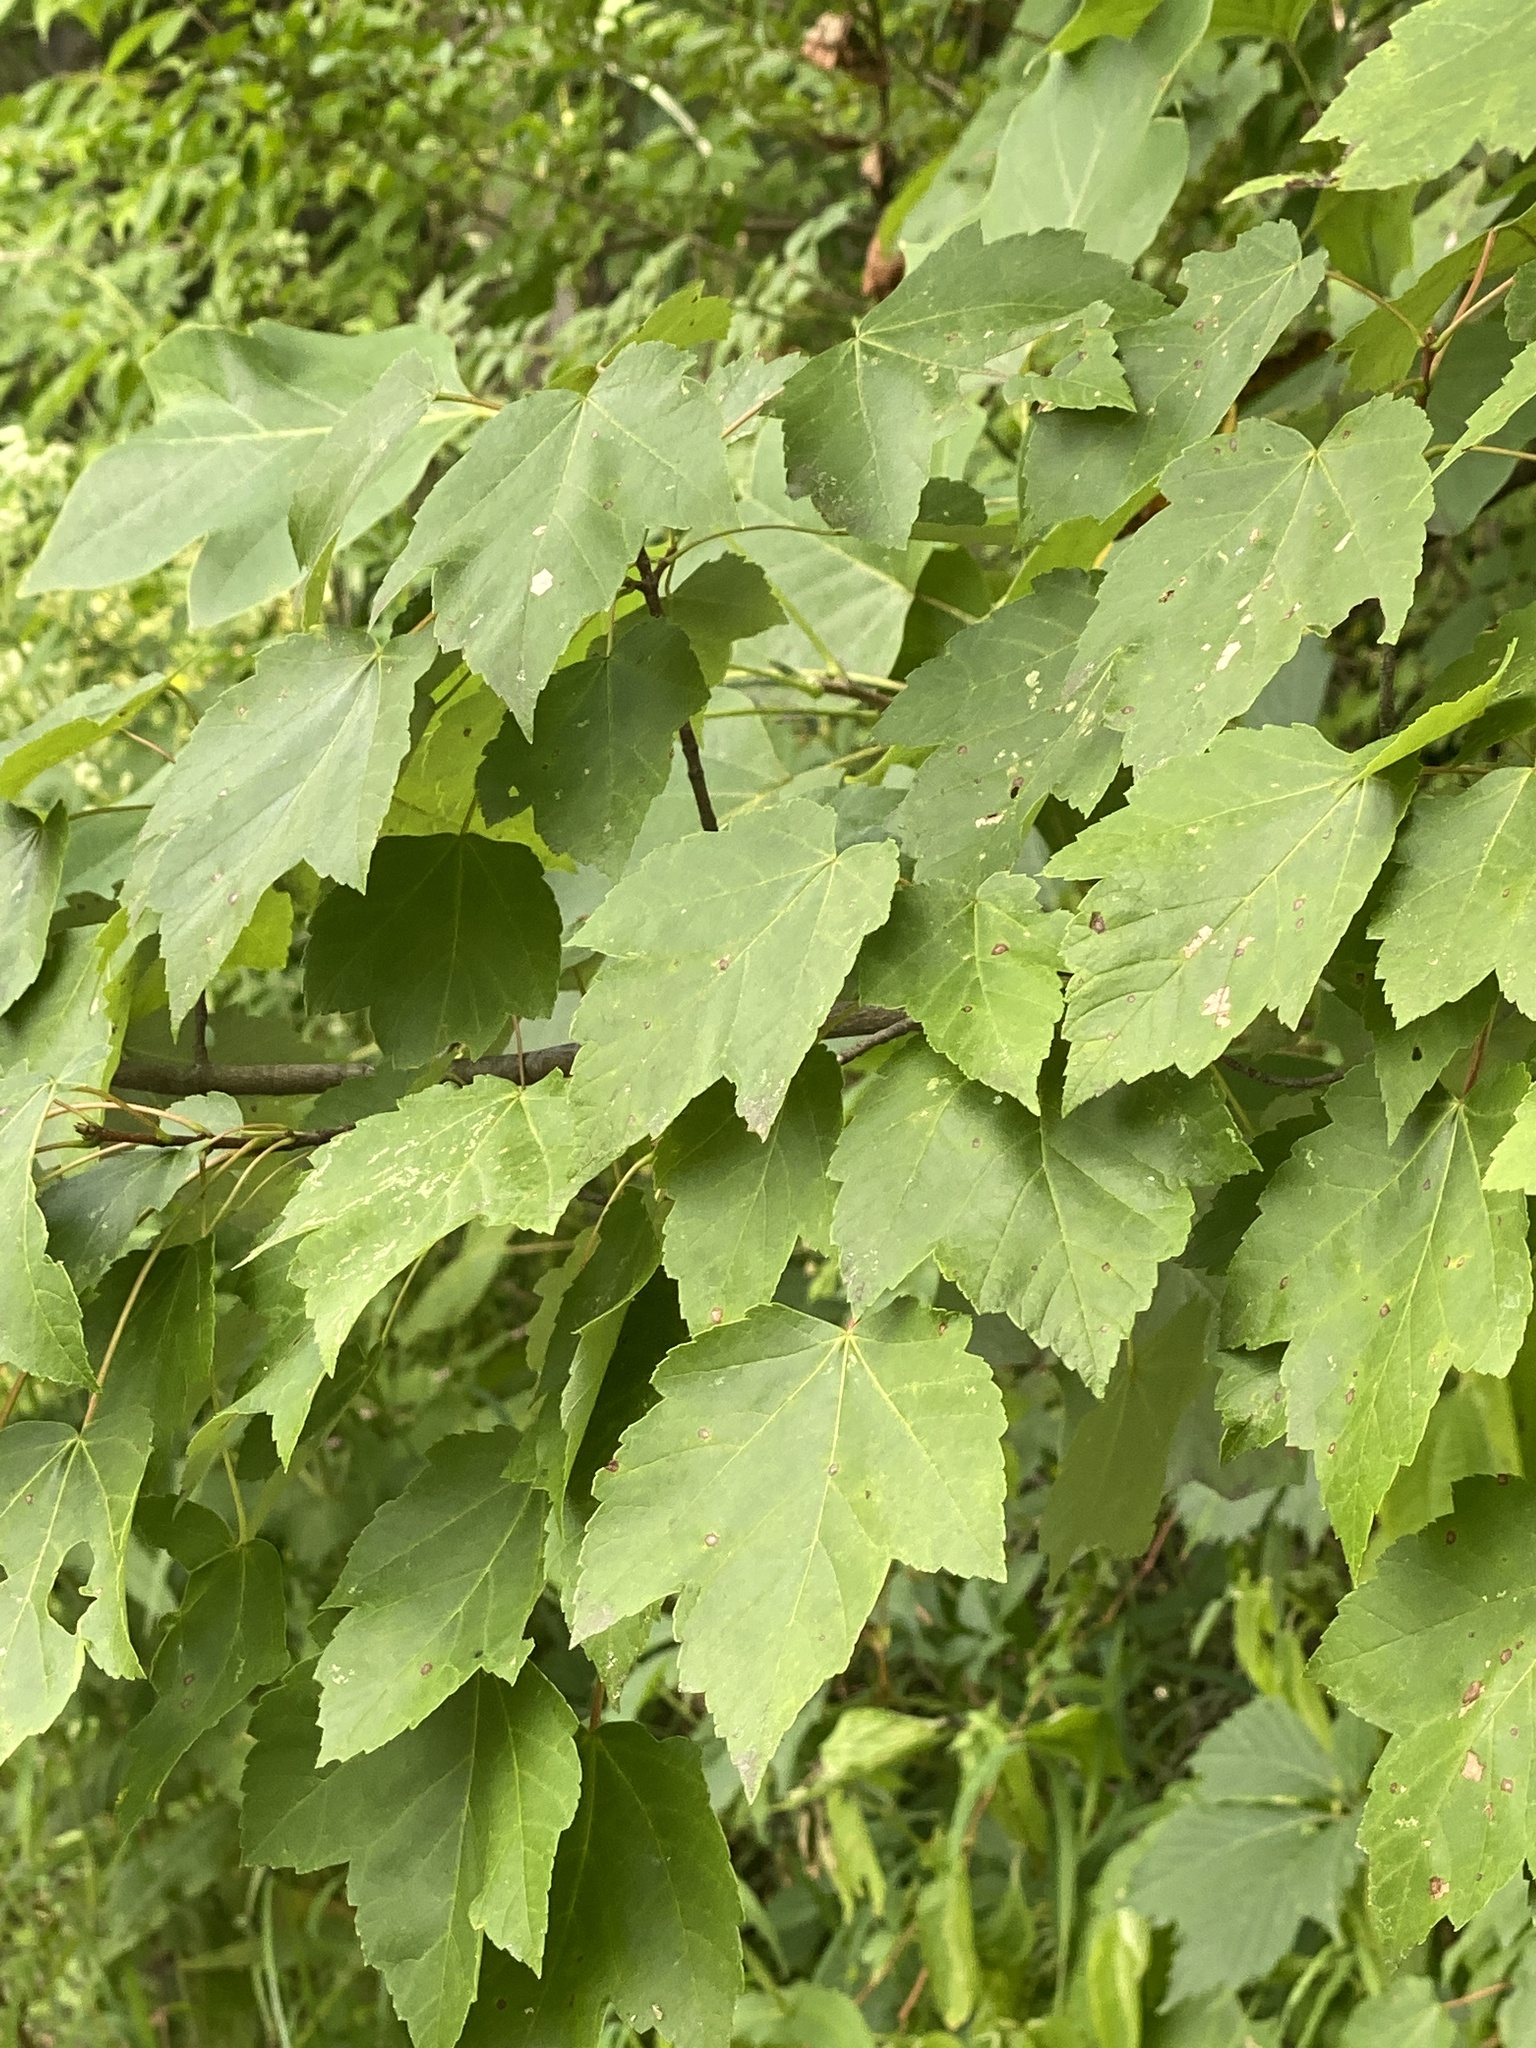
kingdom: Plantae
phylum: Tracheophyta
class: Magnoliopsida
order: Sapindales
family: Sapindaceae
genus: Acer
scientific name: Acer rubrum
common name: Red maple
